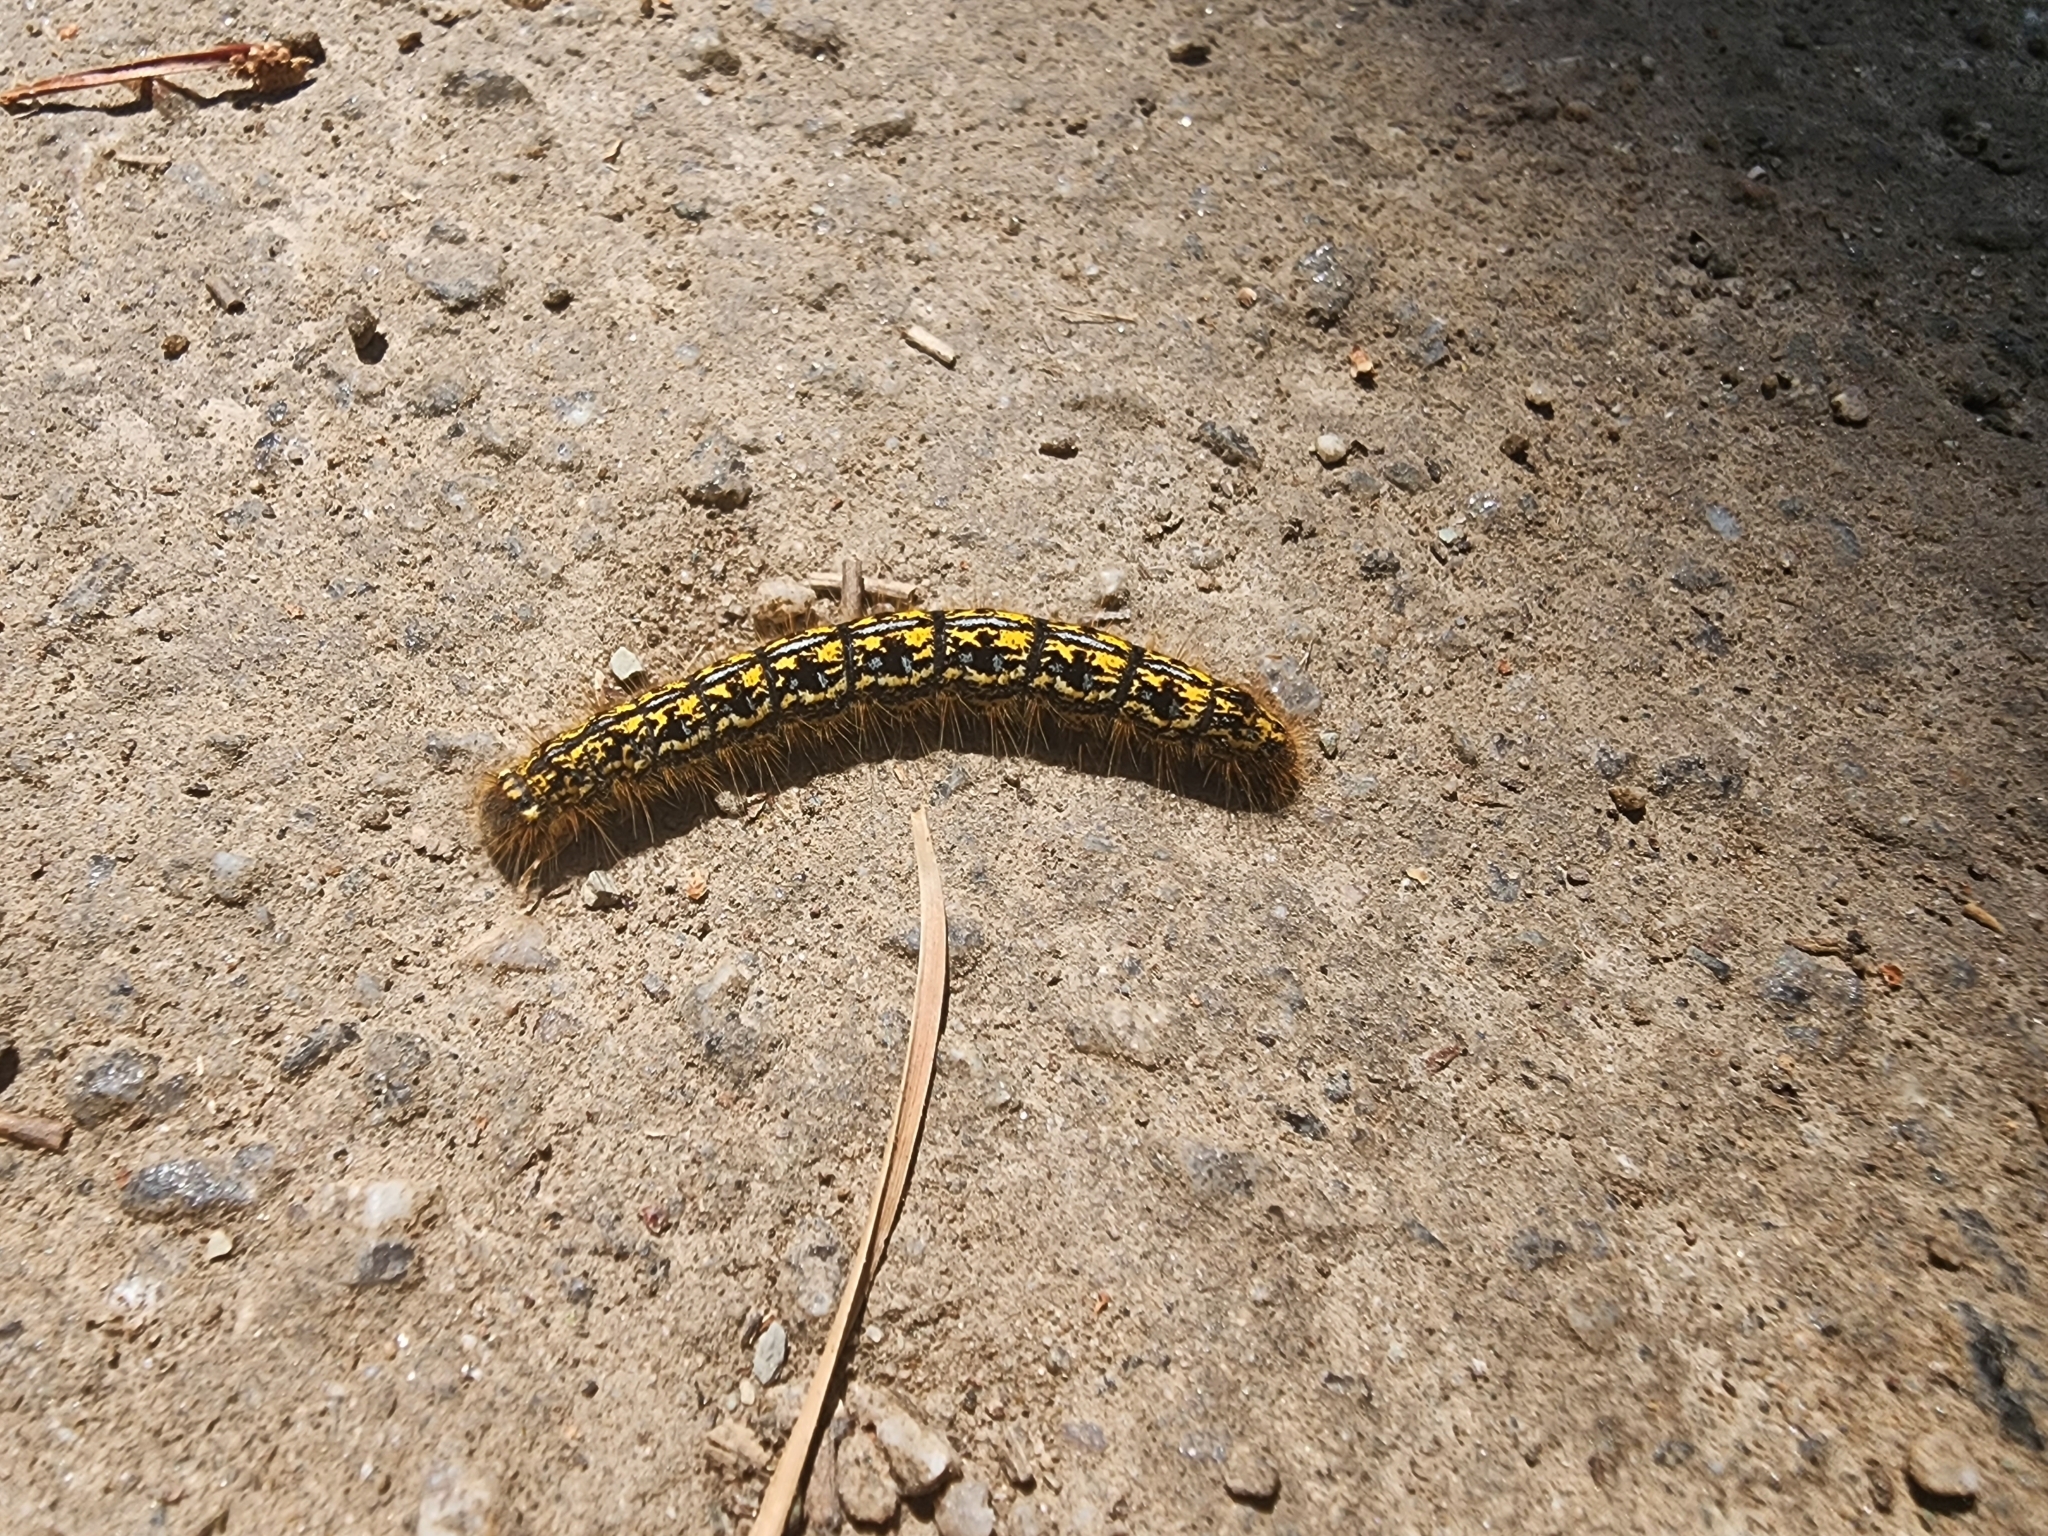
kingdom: Animalia
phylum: Arthropoda
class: Insecta
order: Lepidoptera
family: Lasiocampidae
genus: Malacosoma
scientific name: Malacosoma californica
